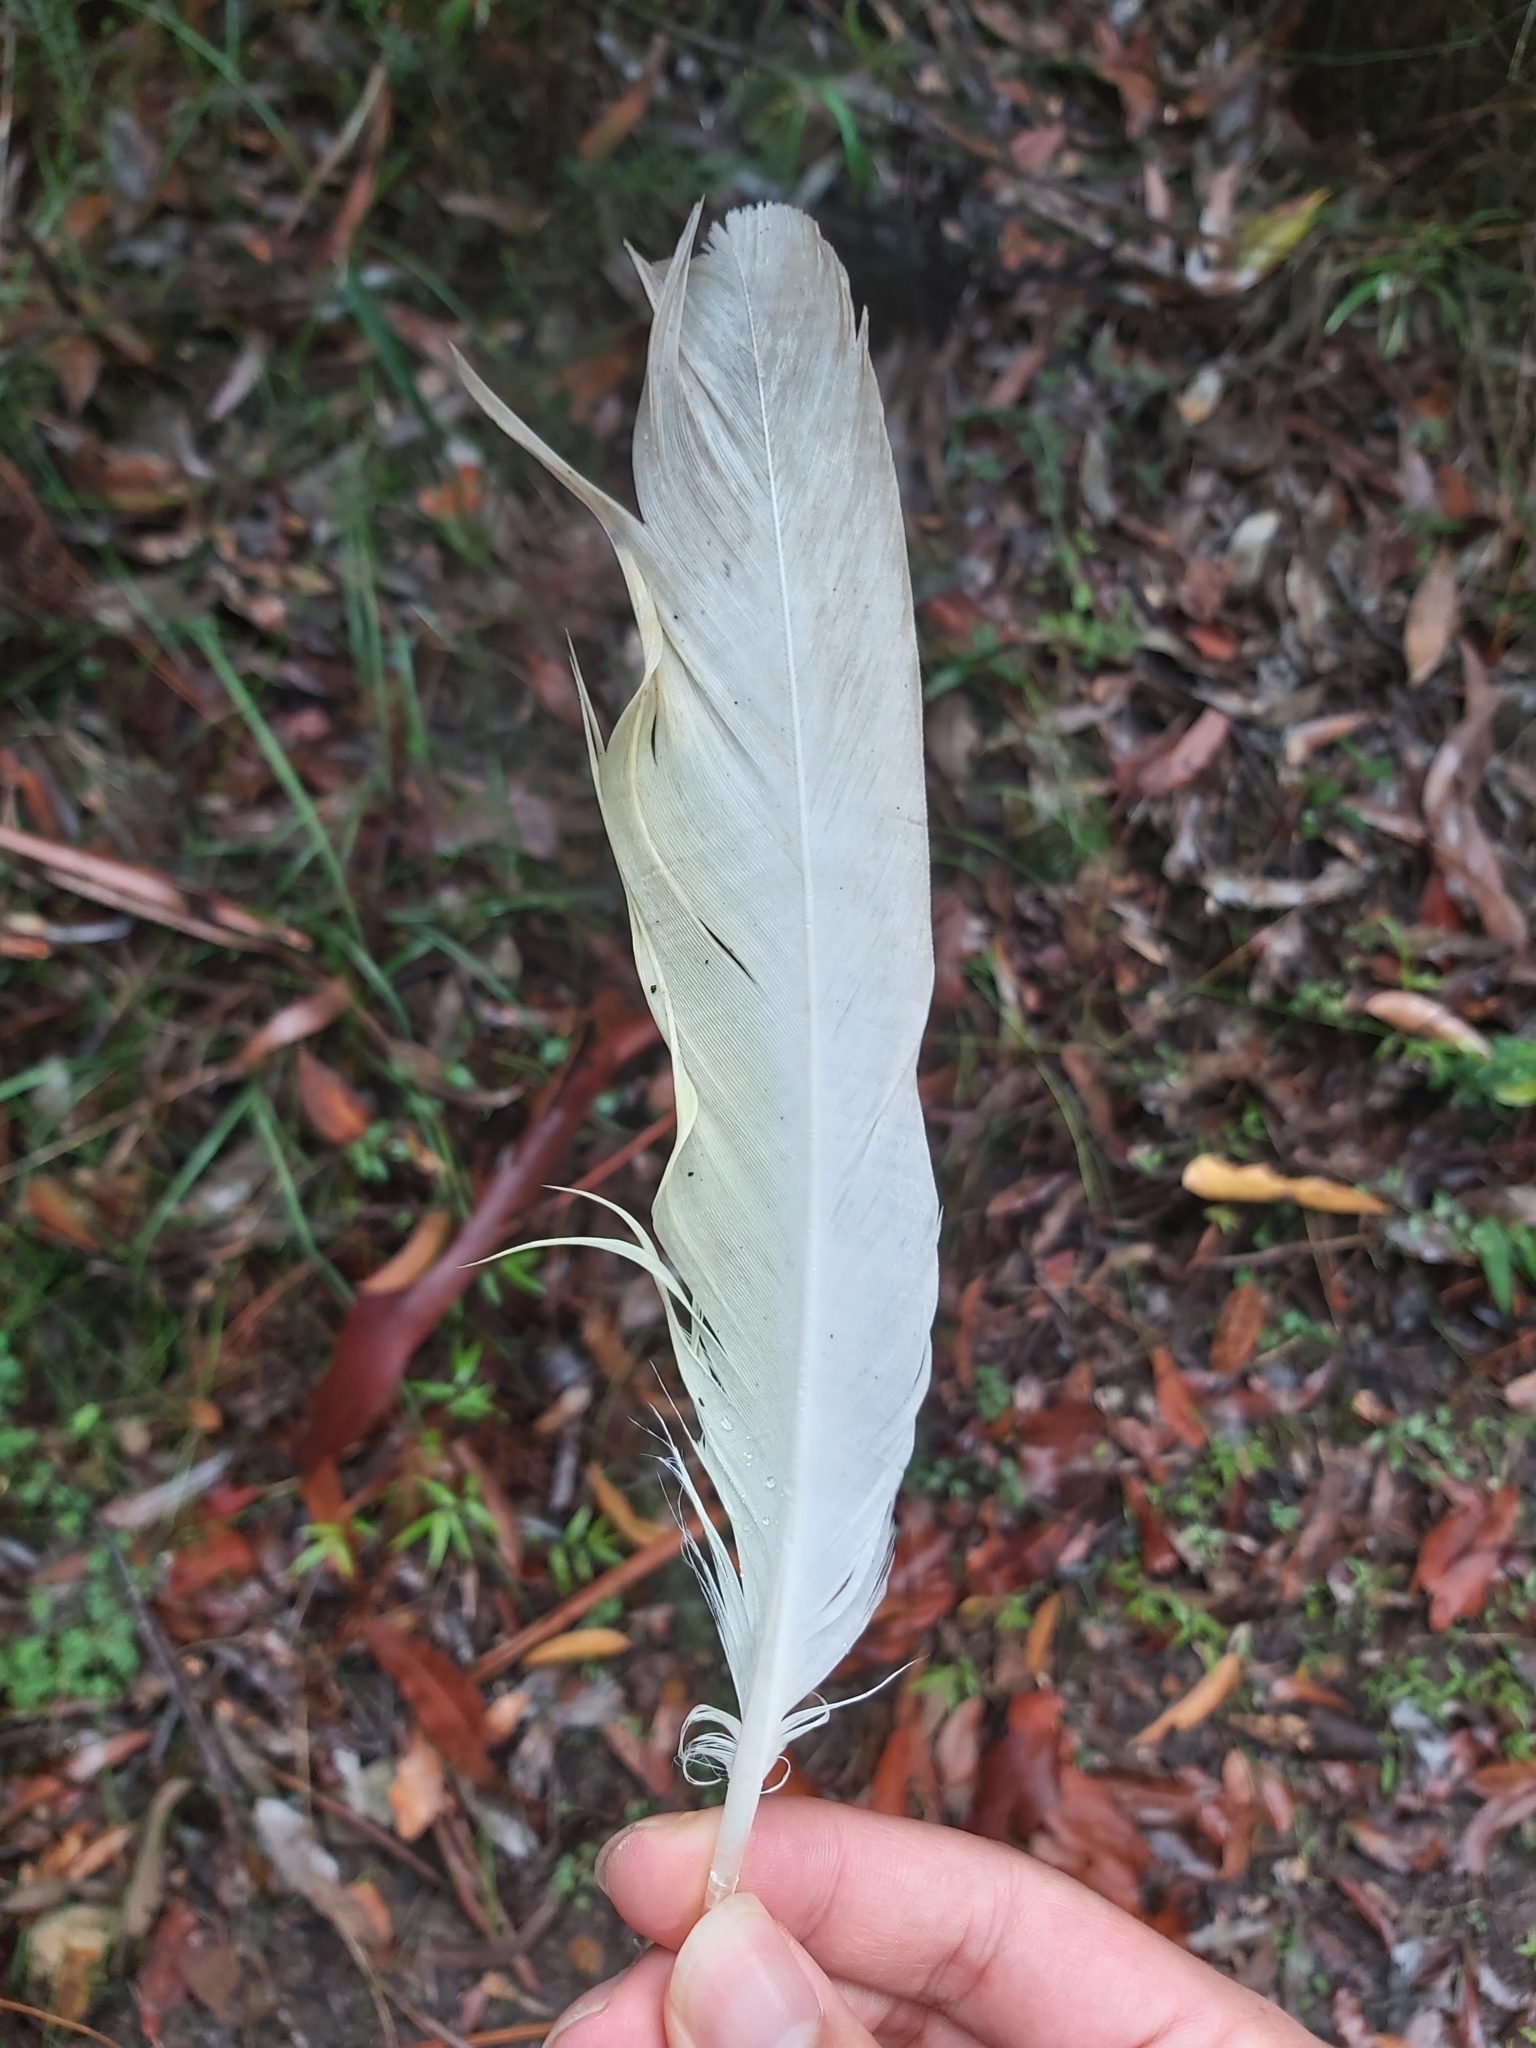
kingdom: Animalia
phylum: Chordata
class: Aves
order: Psittaciformes
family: Psittacidae
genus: Cacatua
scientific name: Cacatua galerita
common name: Sulphur-crested cockatoo
